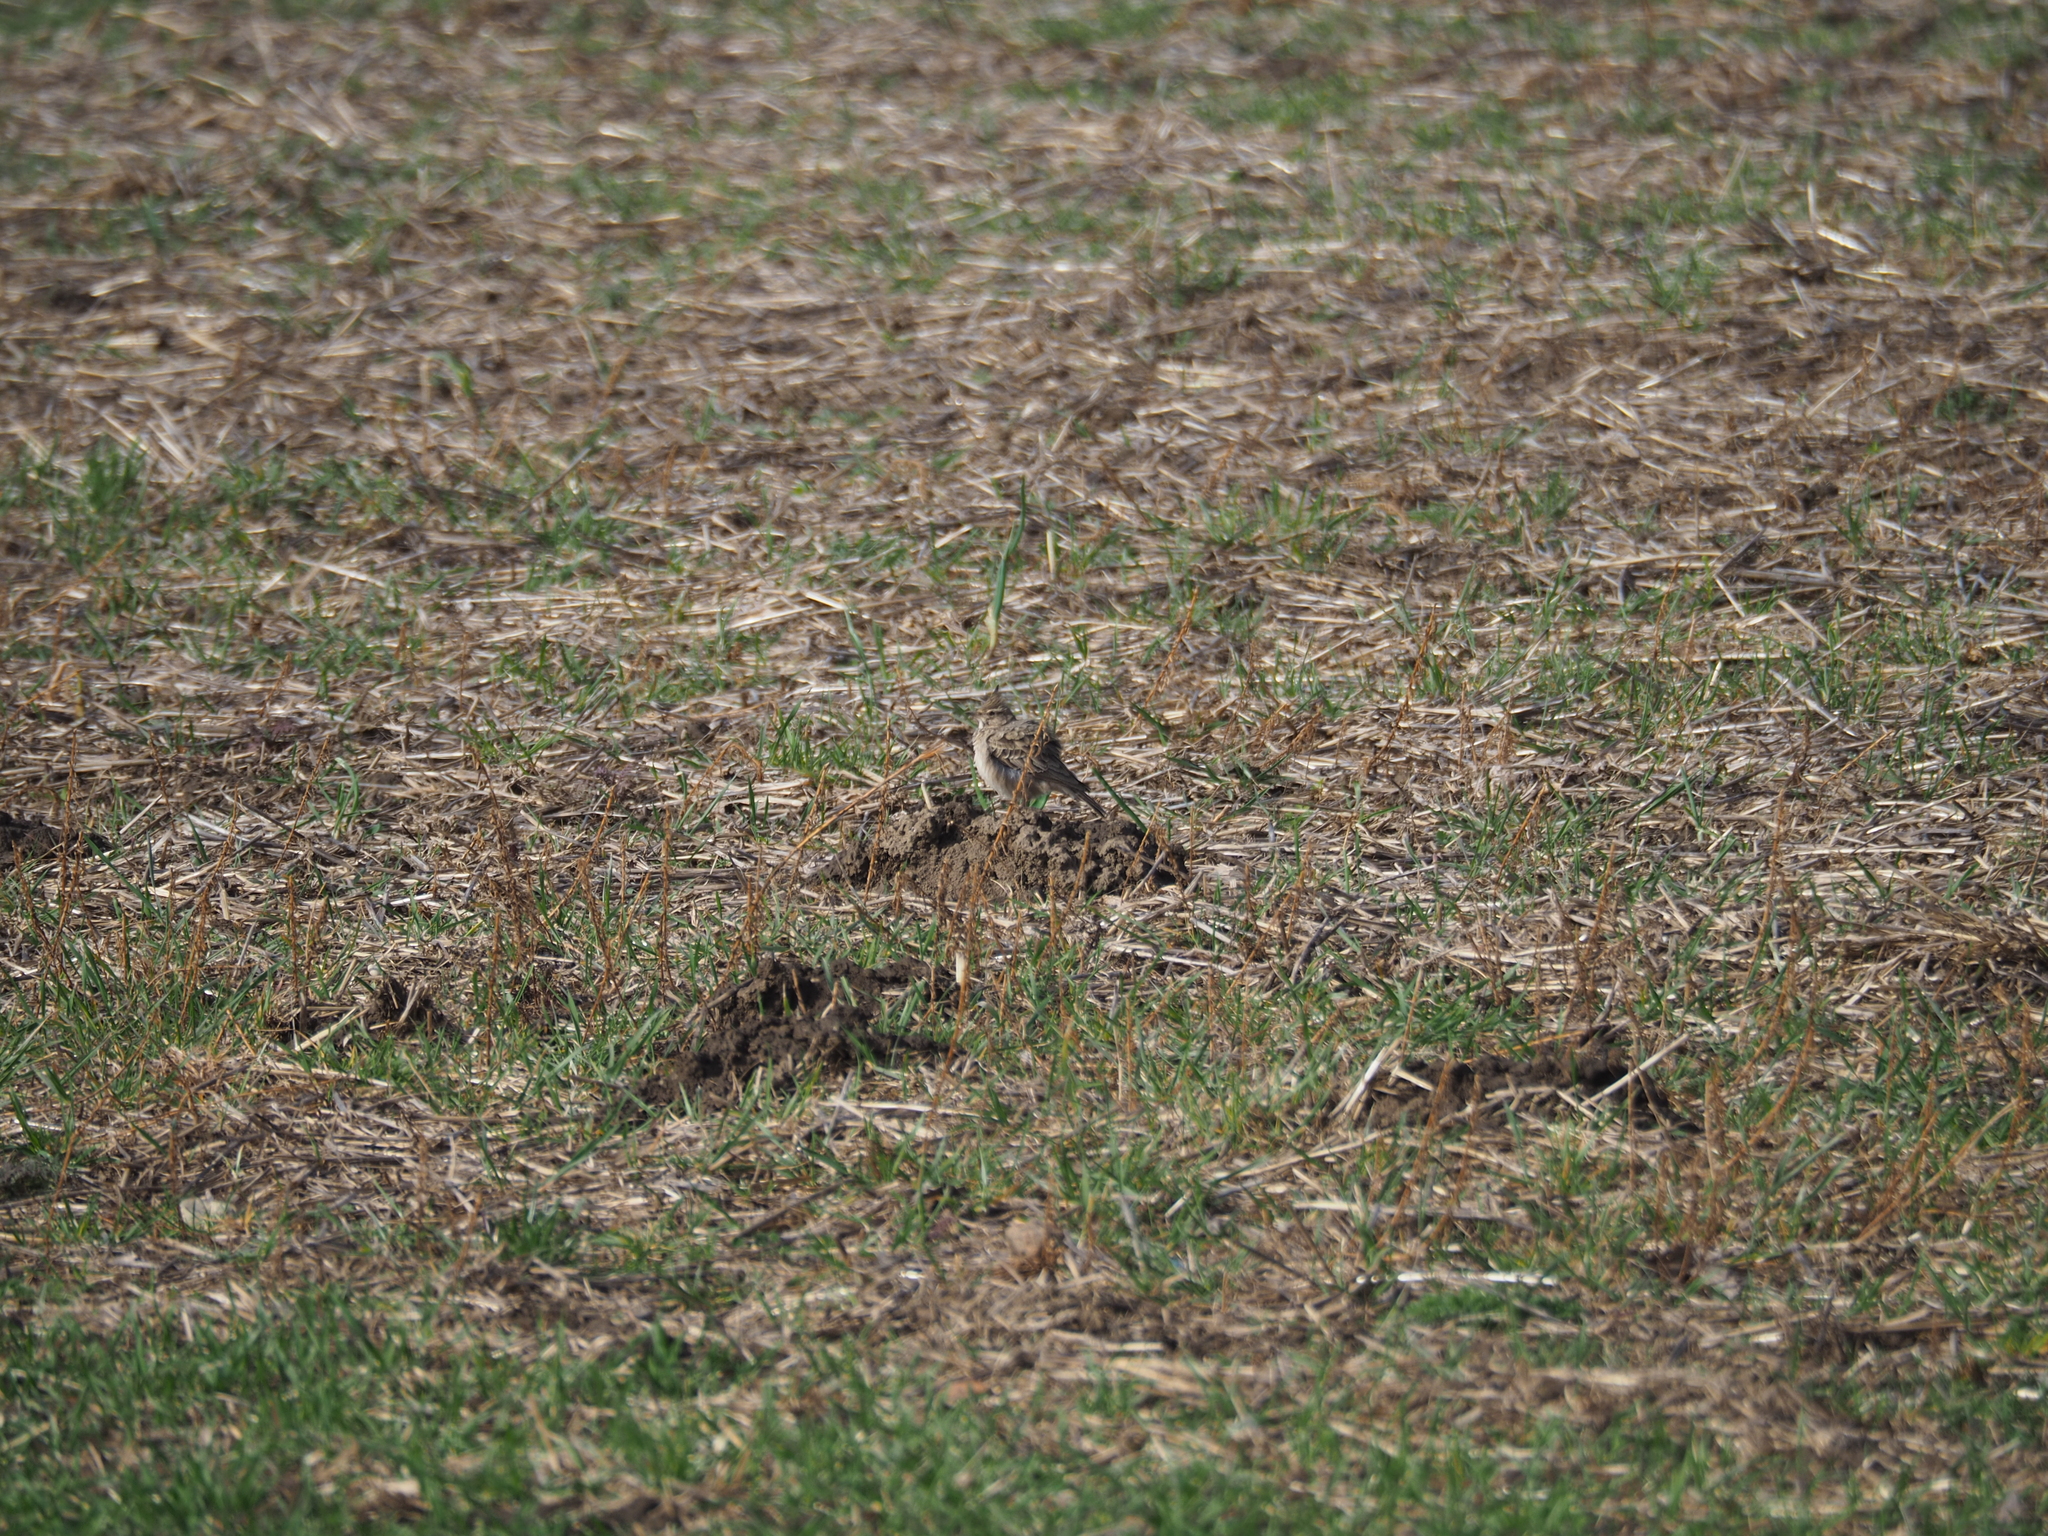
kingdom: Animalia
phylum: Chordata
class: Aves
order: Passeriformes
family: Alaudidae
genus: Galerida
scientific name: Galerida cristata
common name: Crested lark
